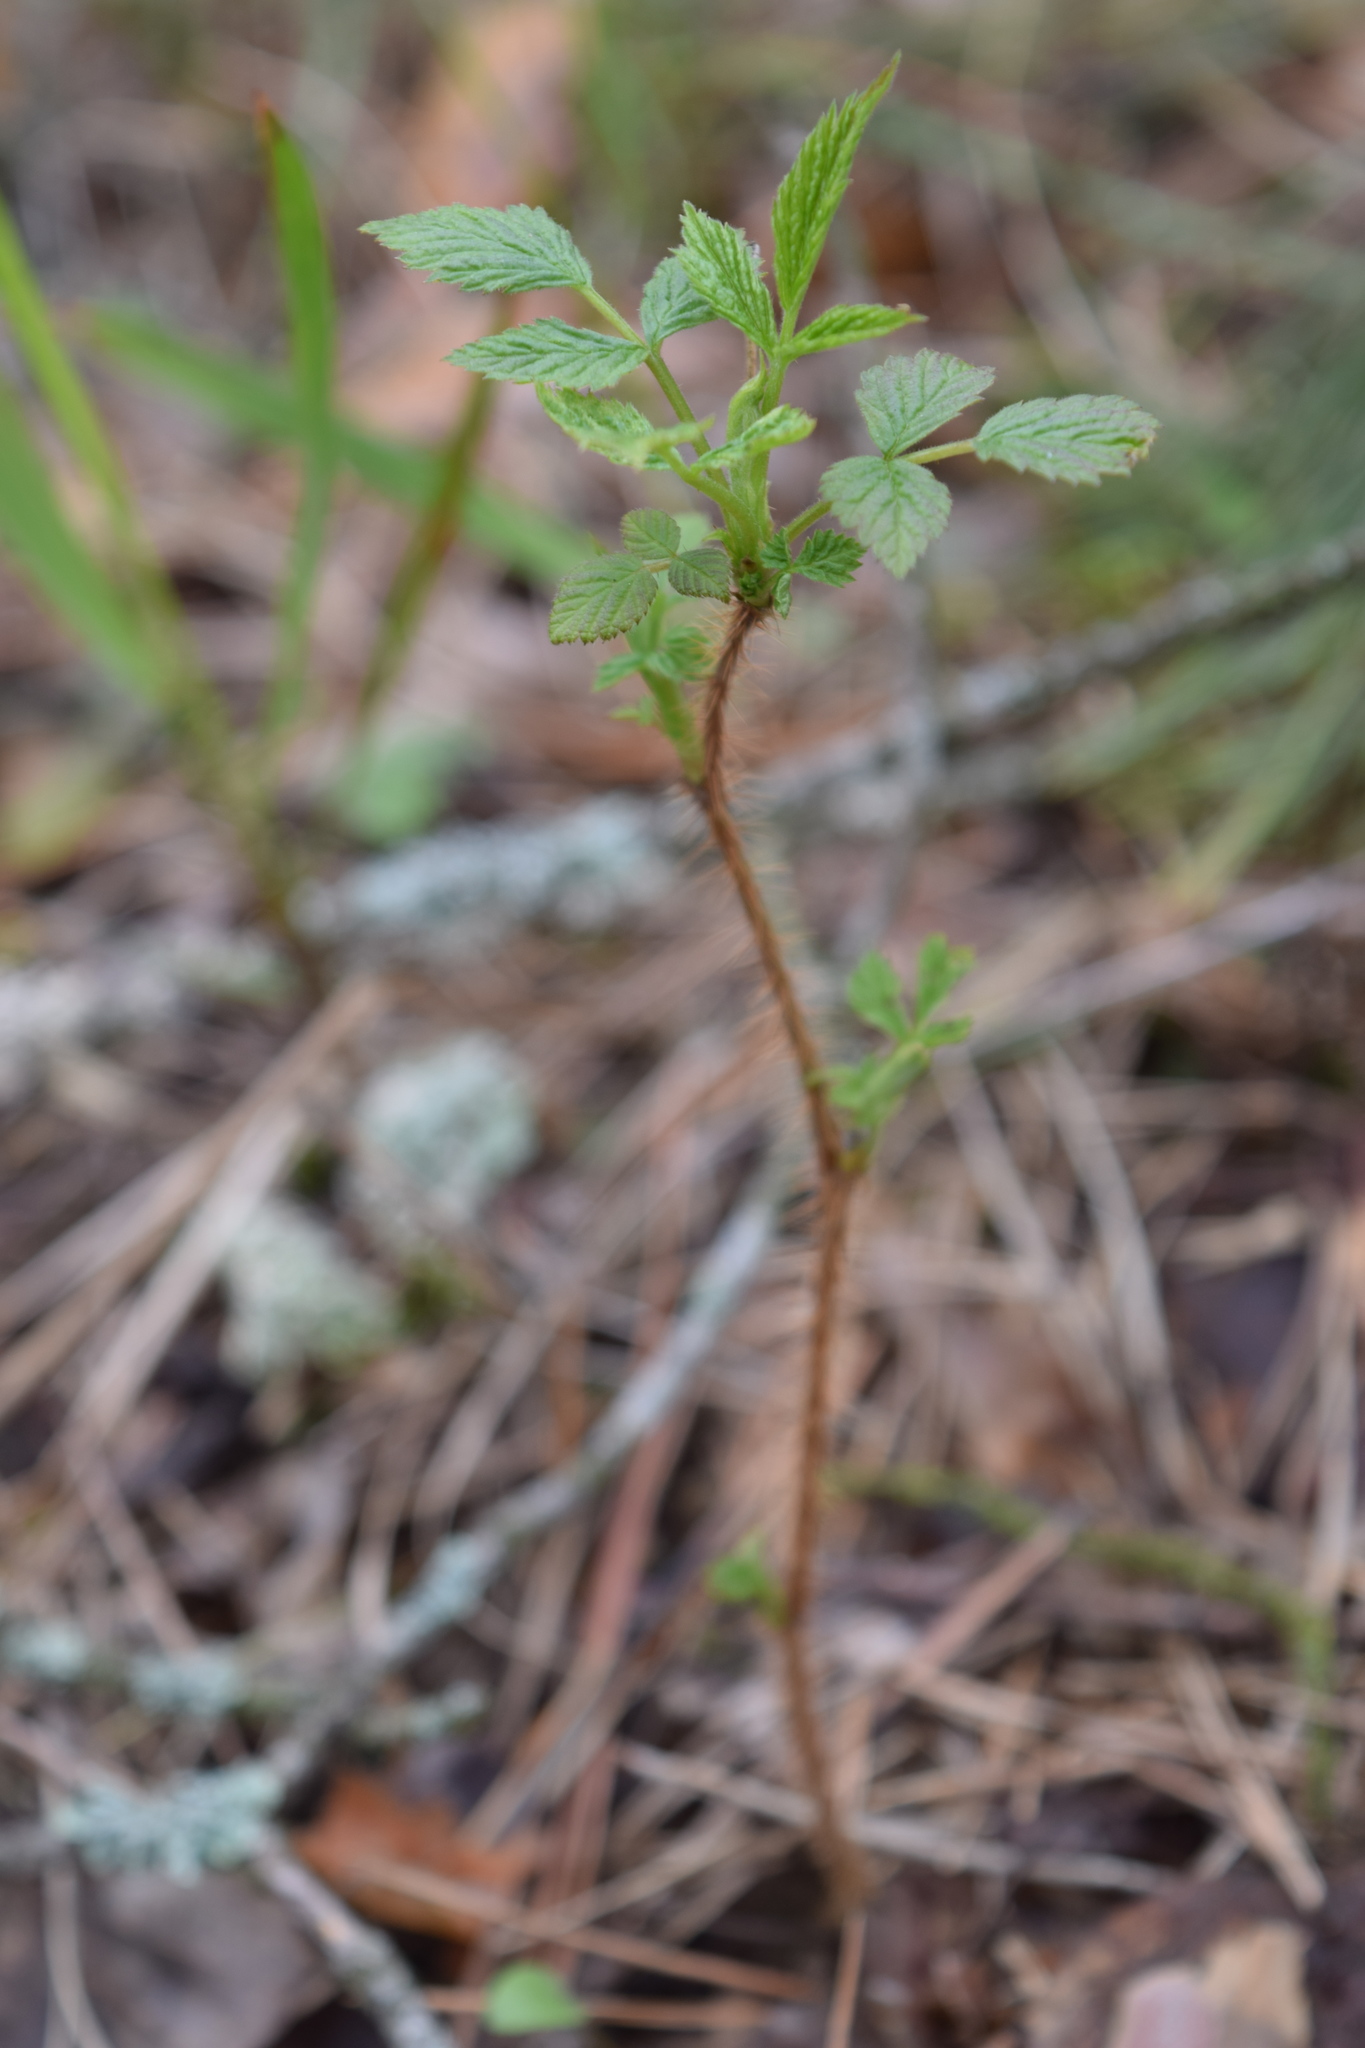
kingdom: Plantae
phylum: Tracheophyta
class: Magnoliopsida
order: Rosales
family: Rosaceae
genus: Rubus
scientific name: Rubus idaeus
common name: Raspberry
